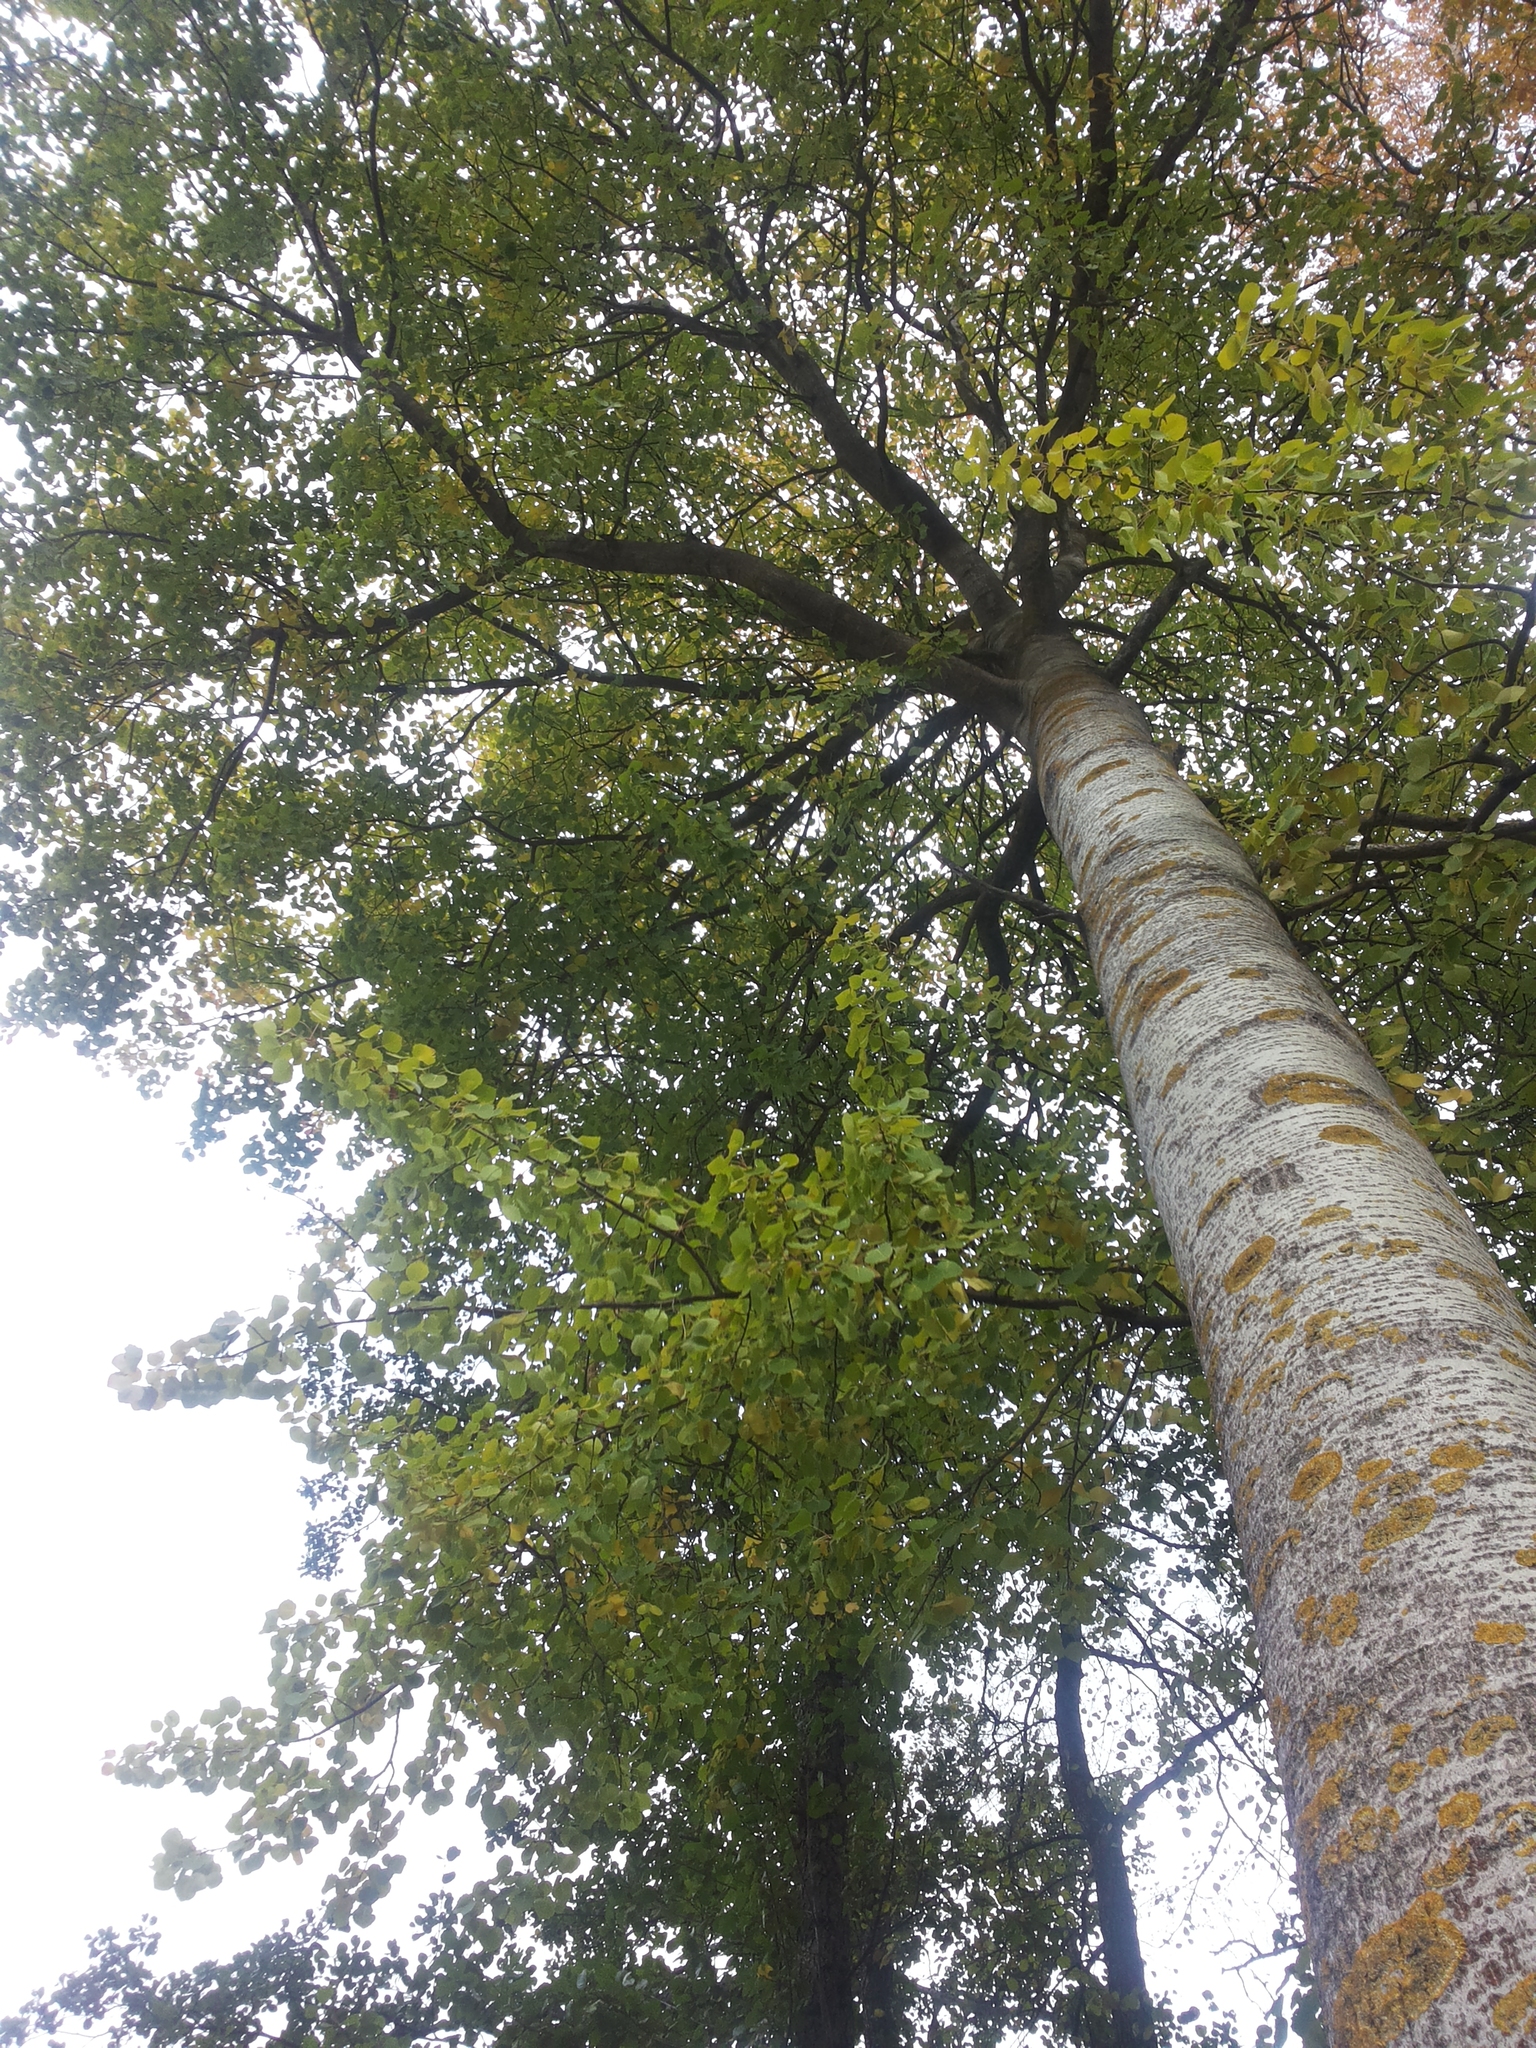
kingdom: Plantae
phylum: Tracheophyta
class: Magnoliopsida
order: Malpighiales
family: Salicaceae
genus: Populus
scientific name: Populus tremula
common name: European aspen
